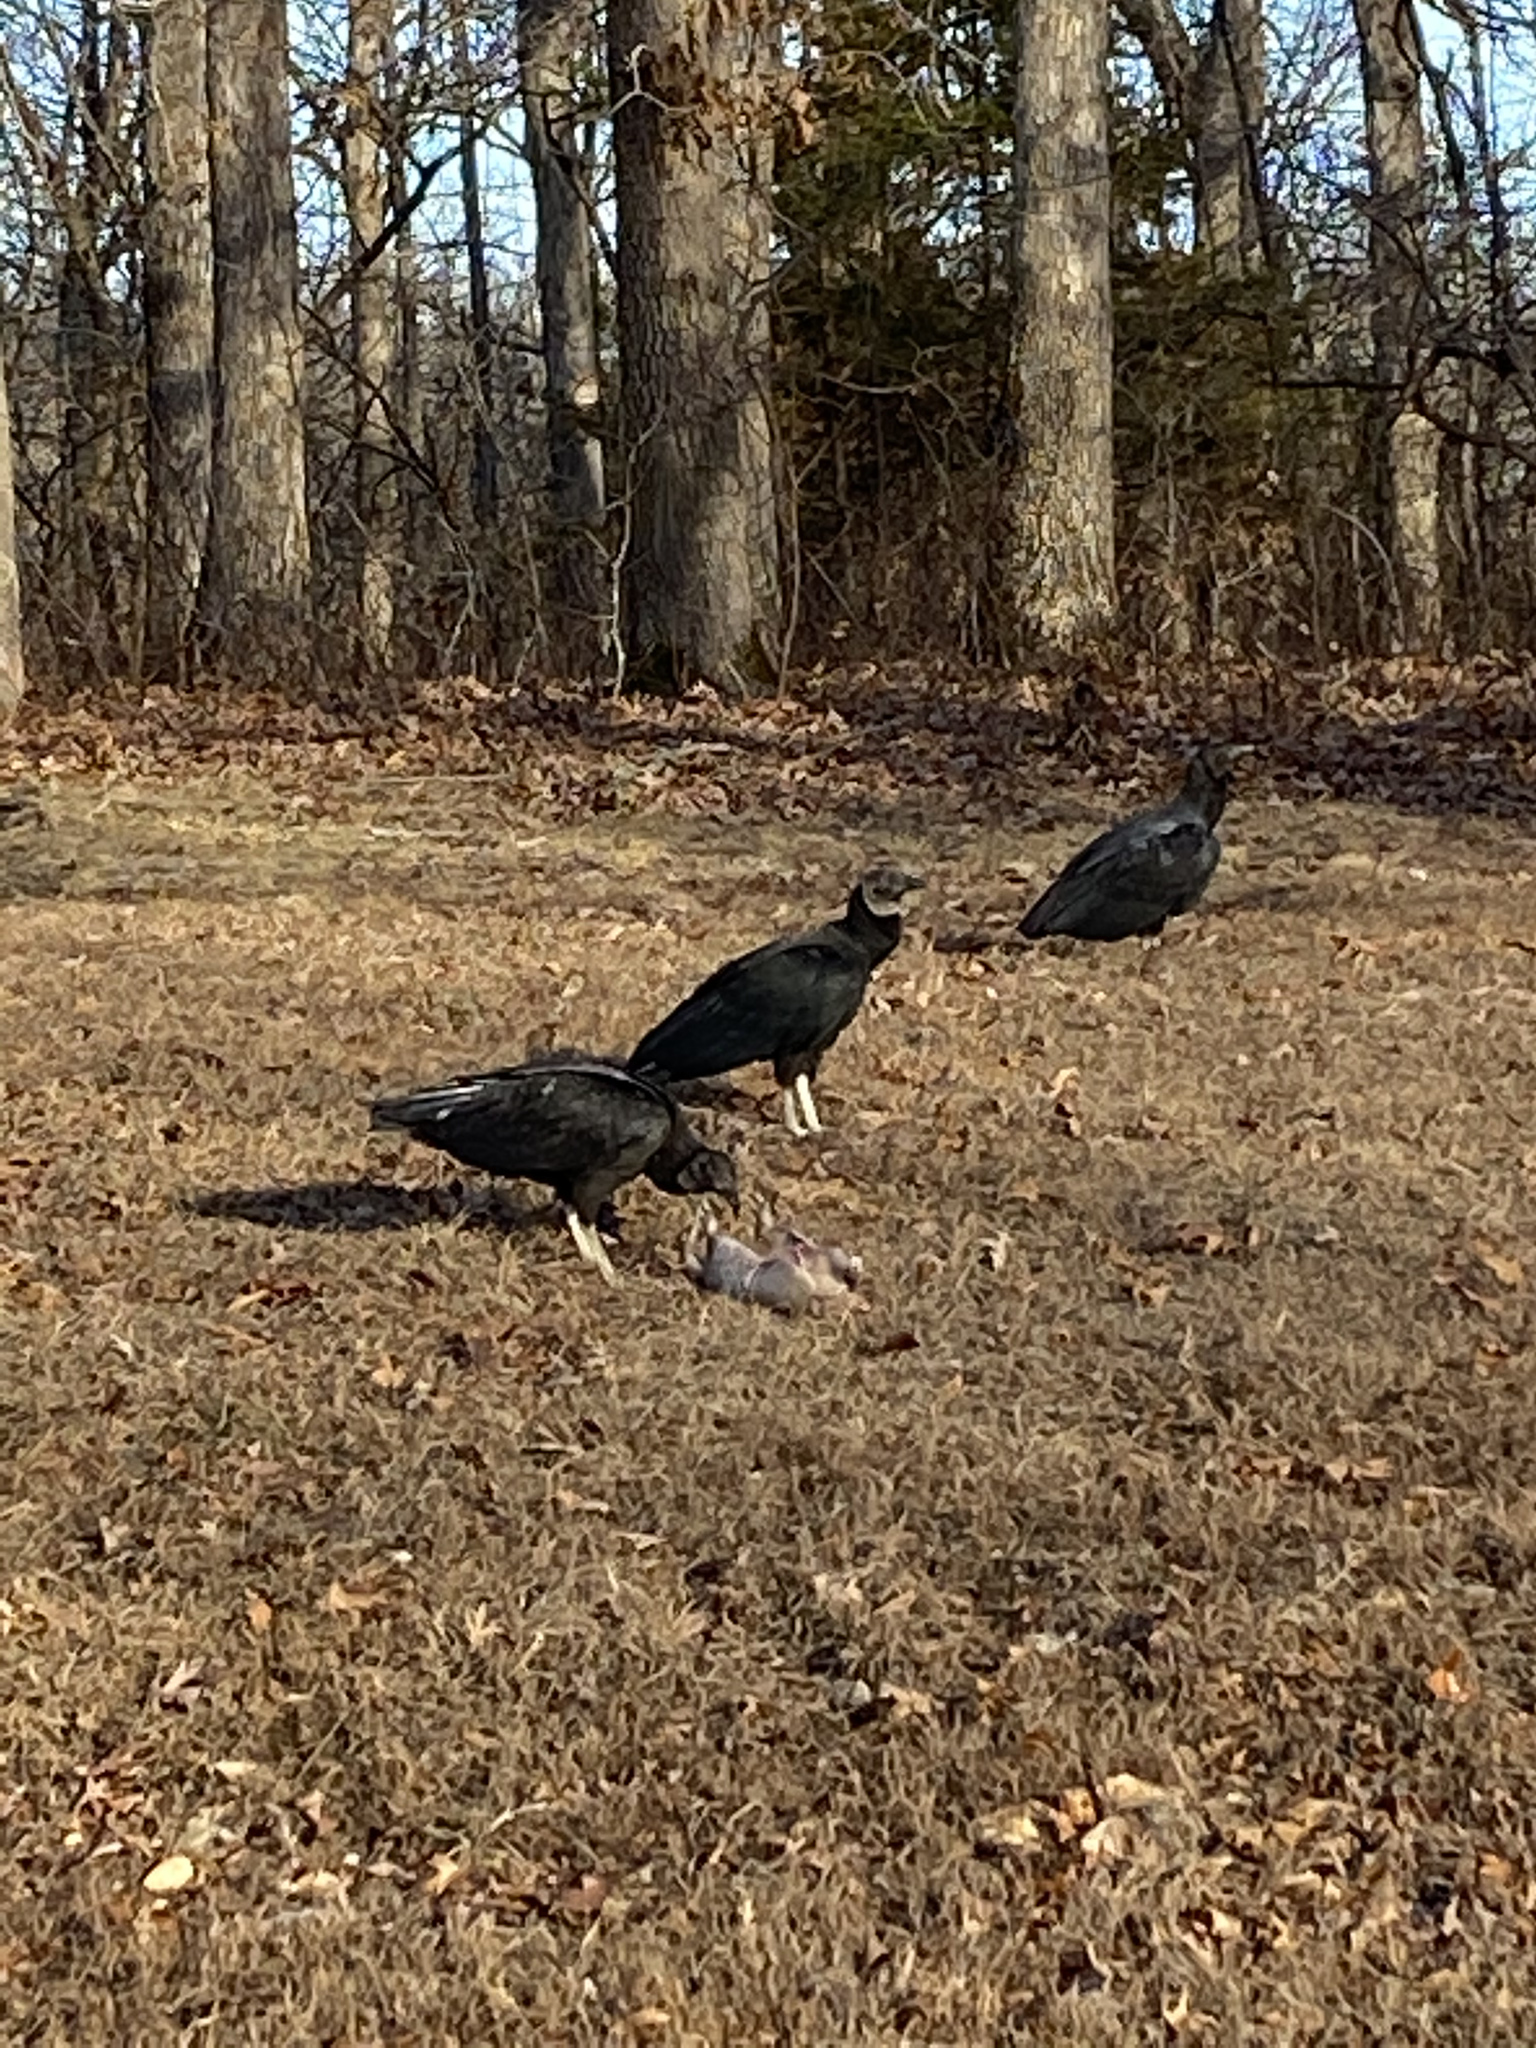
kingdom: Animalia
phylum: Chordata
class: Aves
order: Accipitriformes
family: Cathartidae
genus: Coragyps
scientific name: Coragyps atratus
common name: Black vulture
